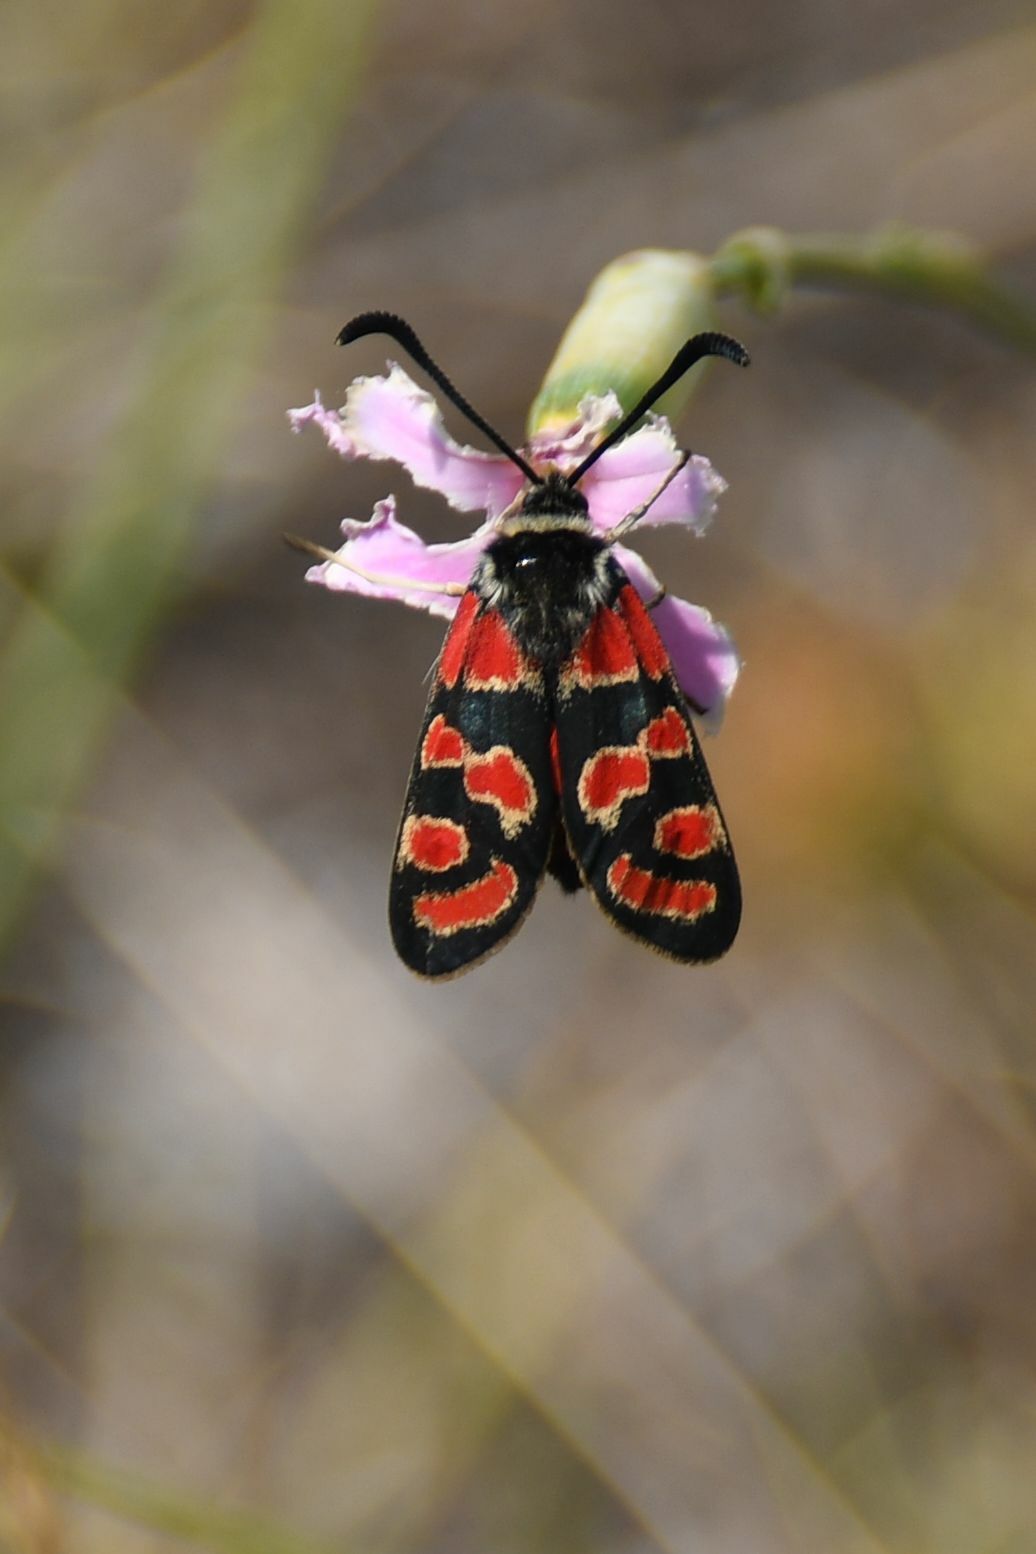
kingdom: Animalia
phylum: Arthropoda
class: Insecta
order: Lepidoptera
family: Zygaenidae
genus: Zygaena
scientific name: Zygaena carniolica
